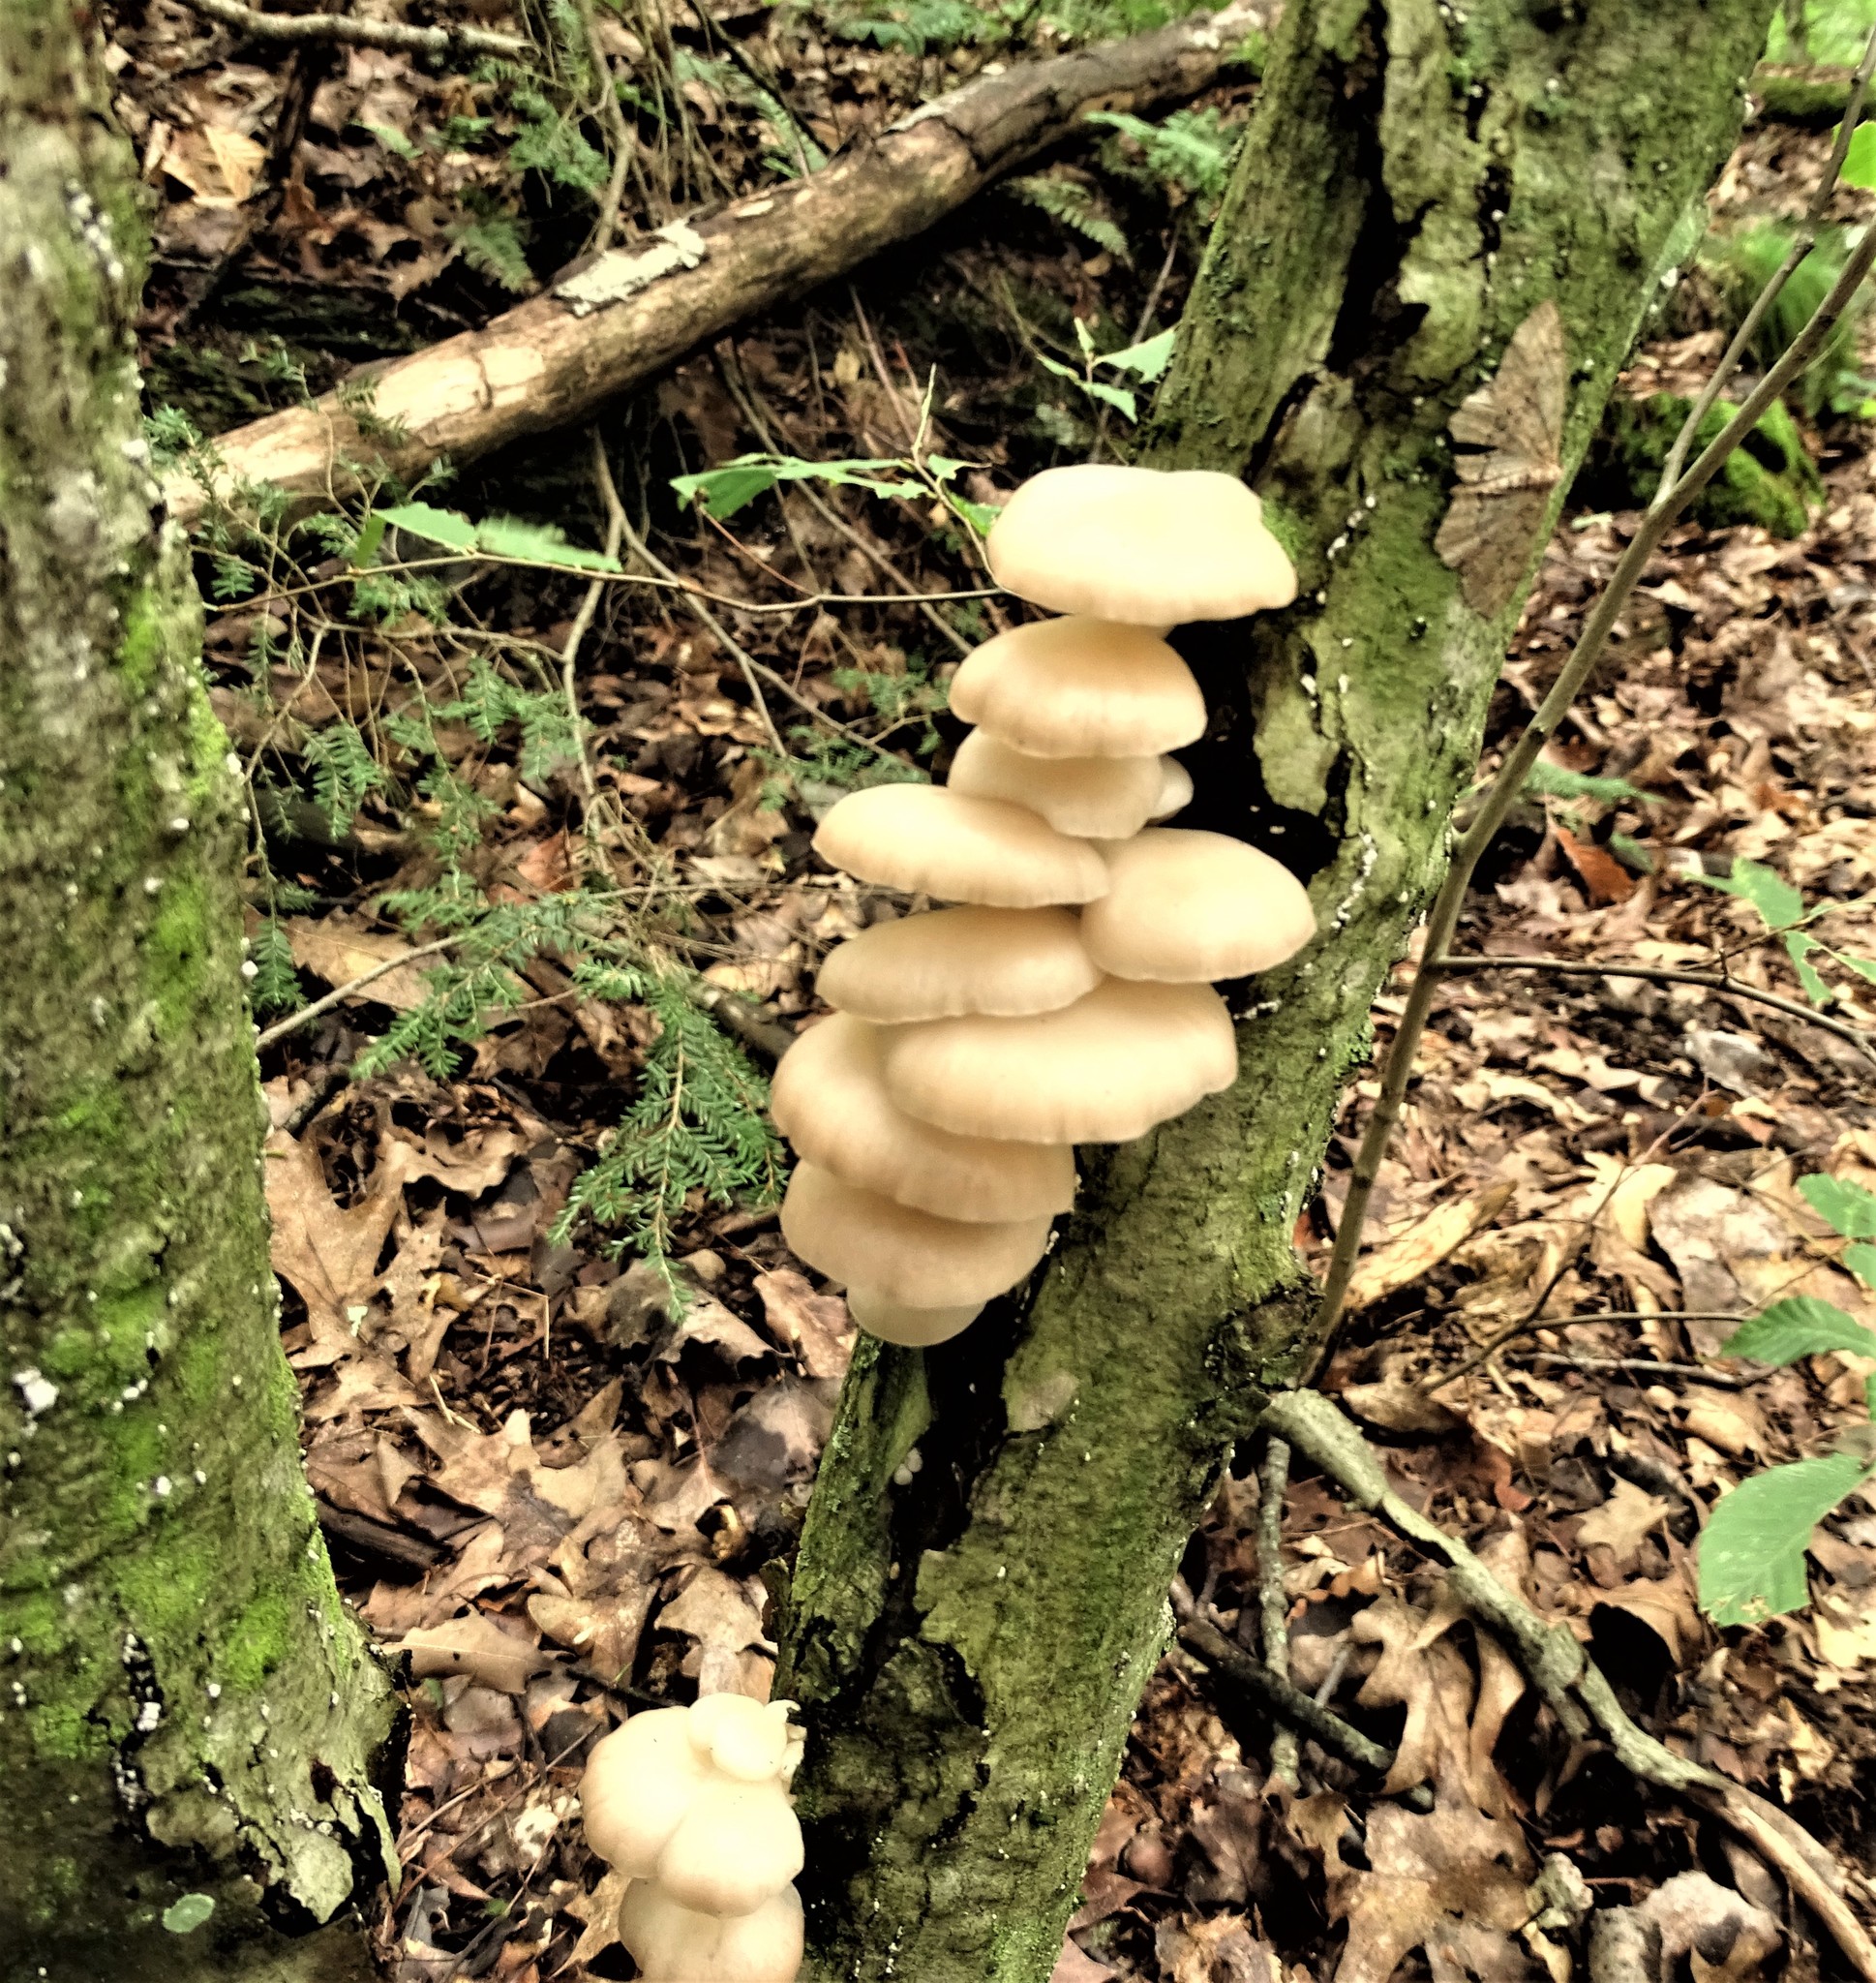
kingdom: Fungi
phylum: Basidiomycota
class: Agaricomycetes
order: Agaricales
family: Pleurotaceae
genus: Pleurotus
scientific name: Pleurotus pulmonarius
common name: Pale oyster
